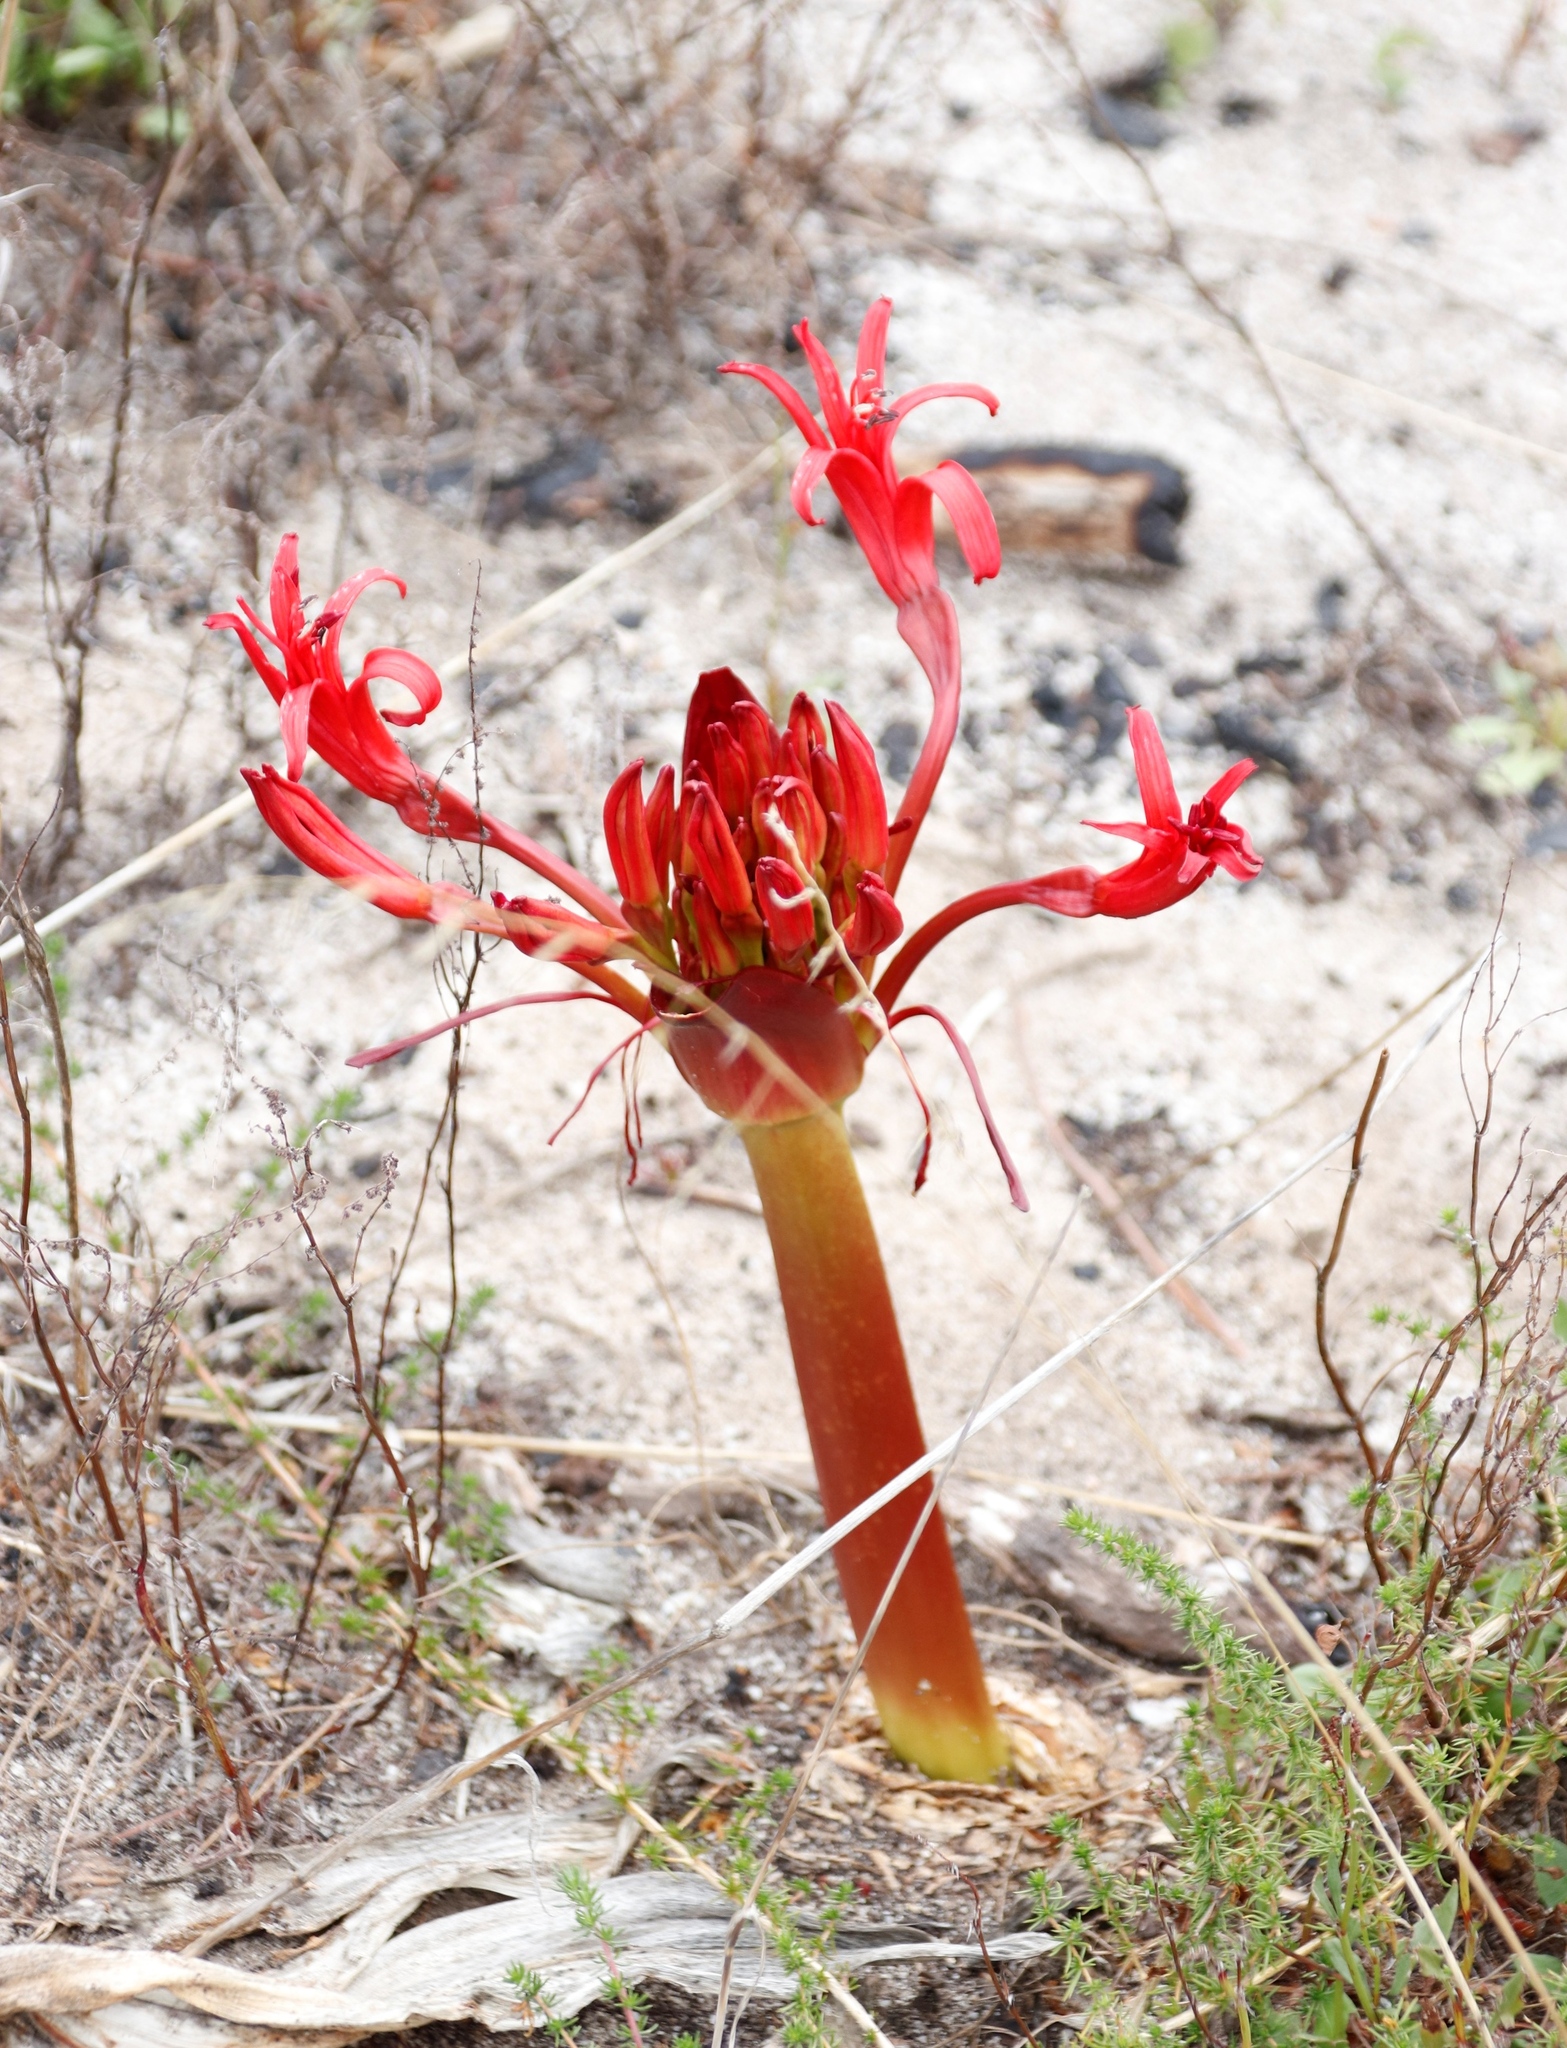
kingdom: Plantae
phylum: Tracheophyta
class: Liliopsida
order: Asparagales
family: Amaryllidaceae
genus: Brunsvigia
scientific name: Brunsvigia orientalis
